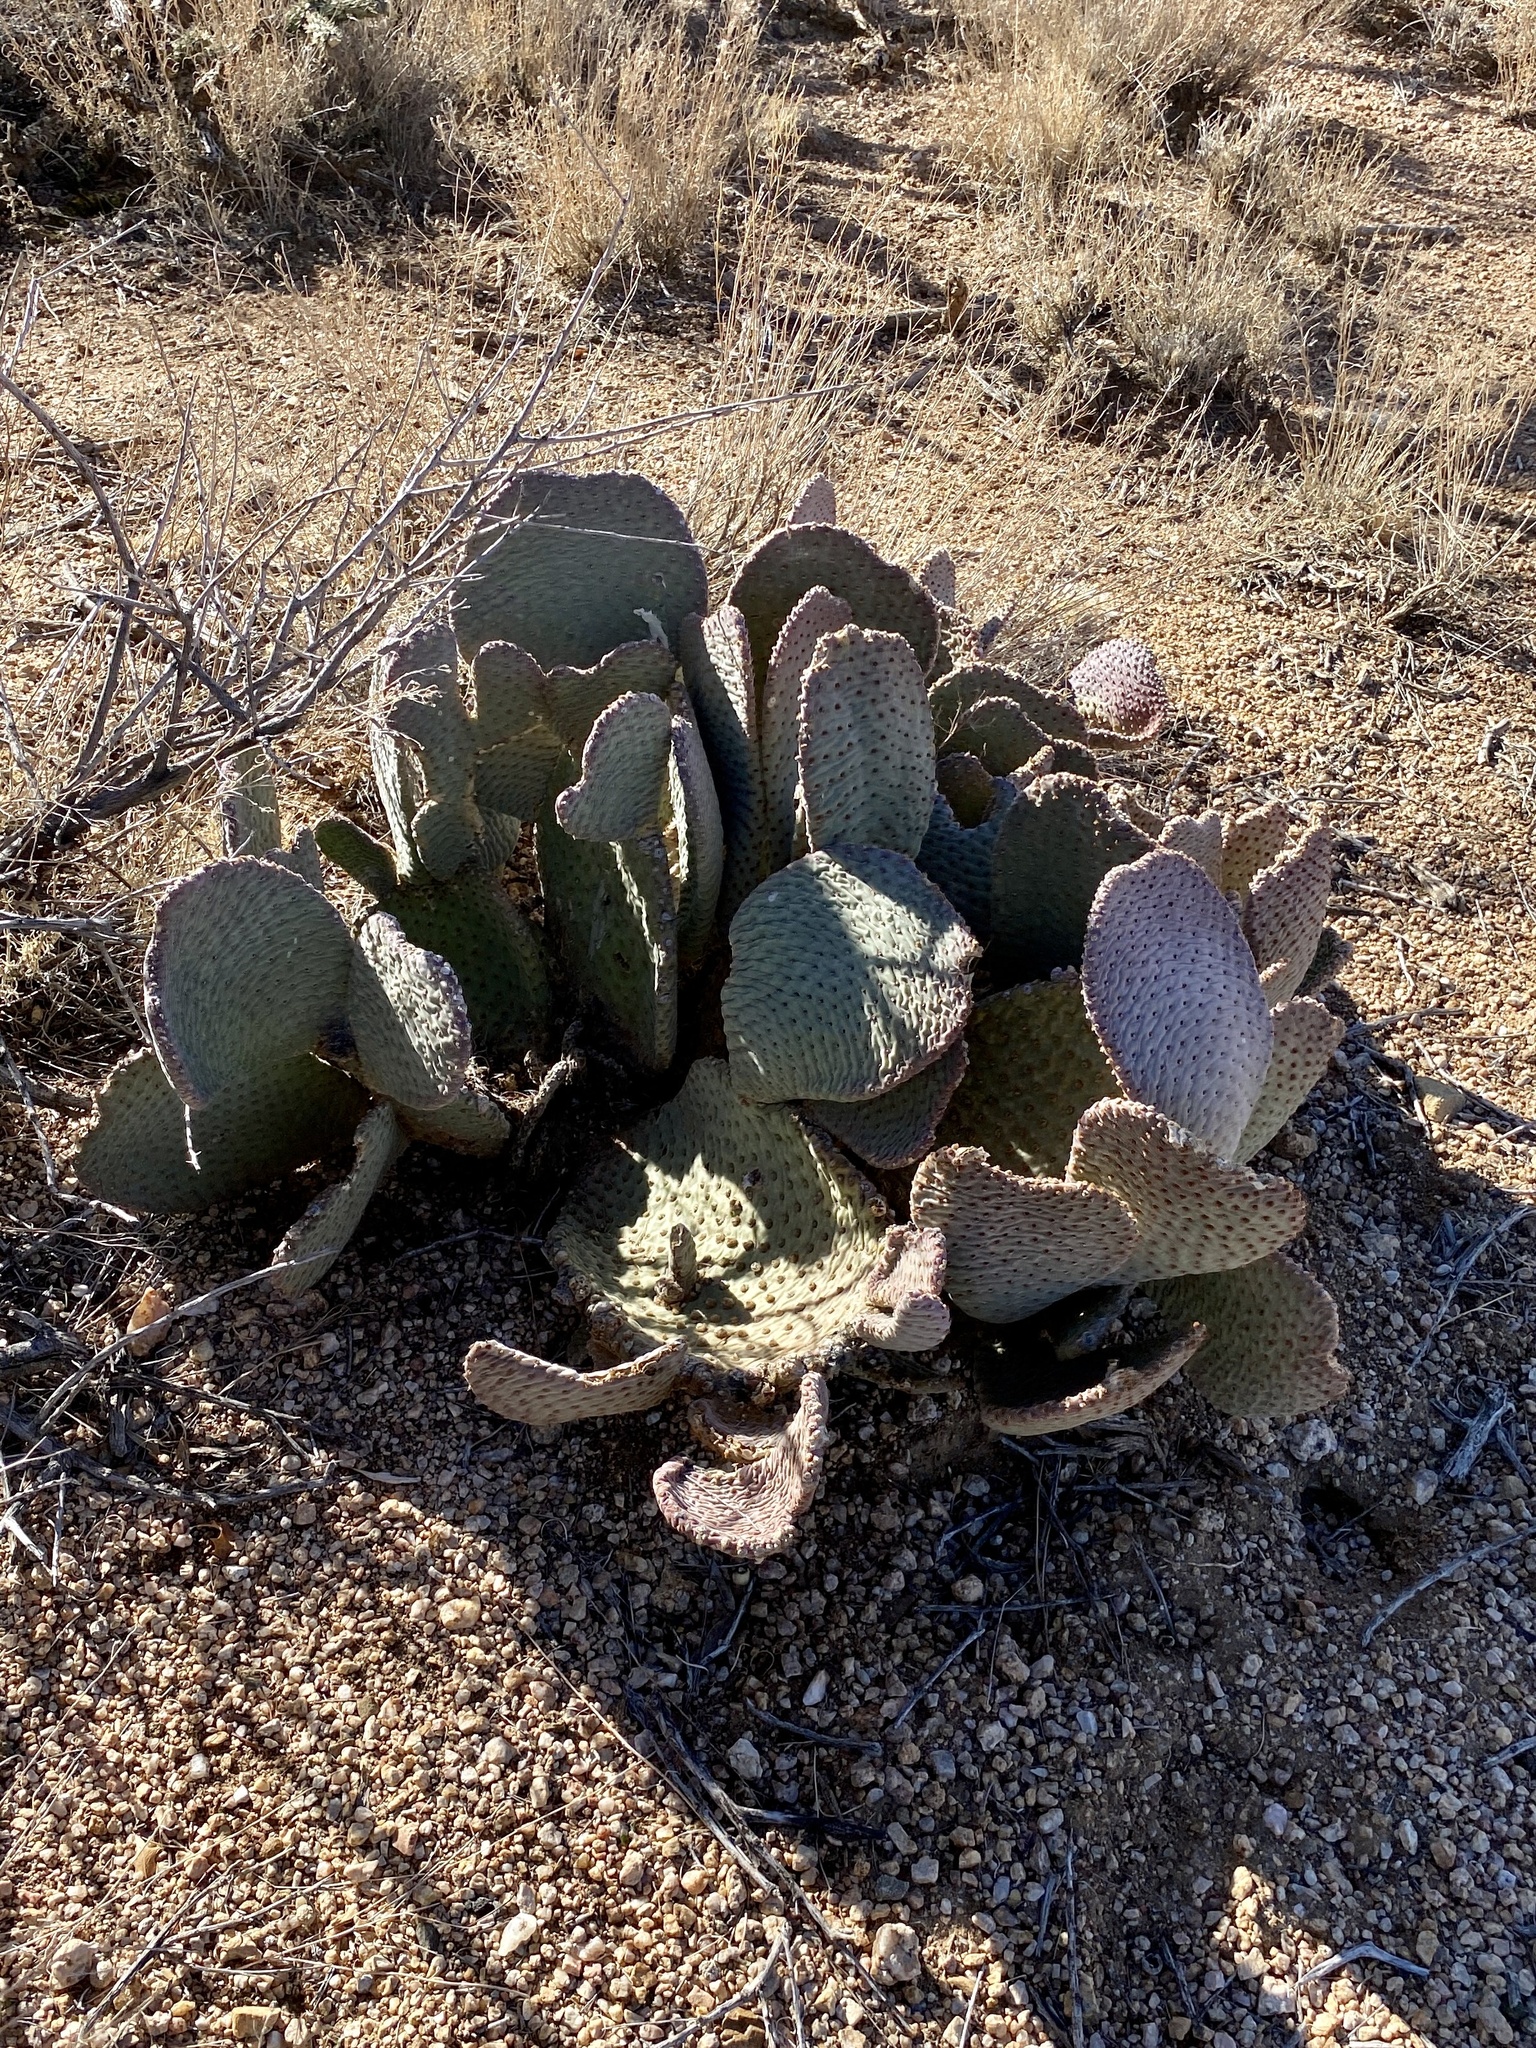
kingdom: Plantae
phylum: Tracheophyta
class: Magnoliopsida
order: Caryophyllales
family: Cactaceae
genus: Opuntia
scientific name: Opuntia basilaris
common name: Beavertail prickly-pear
